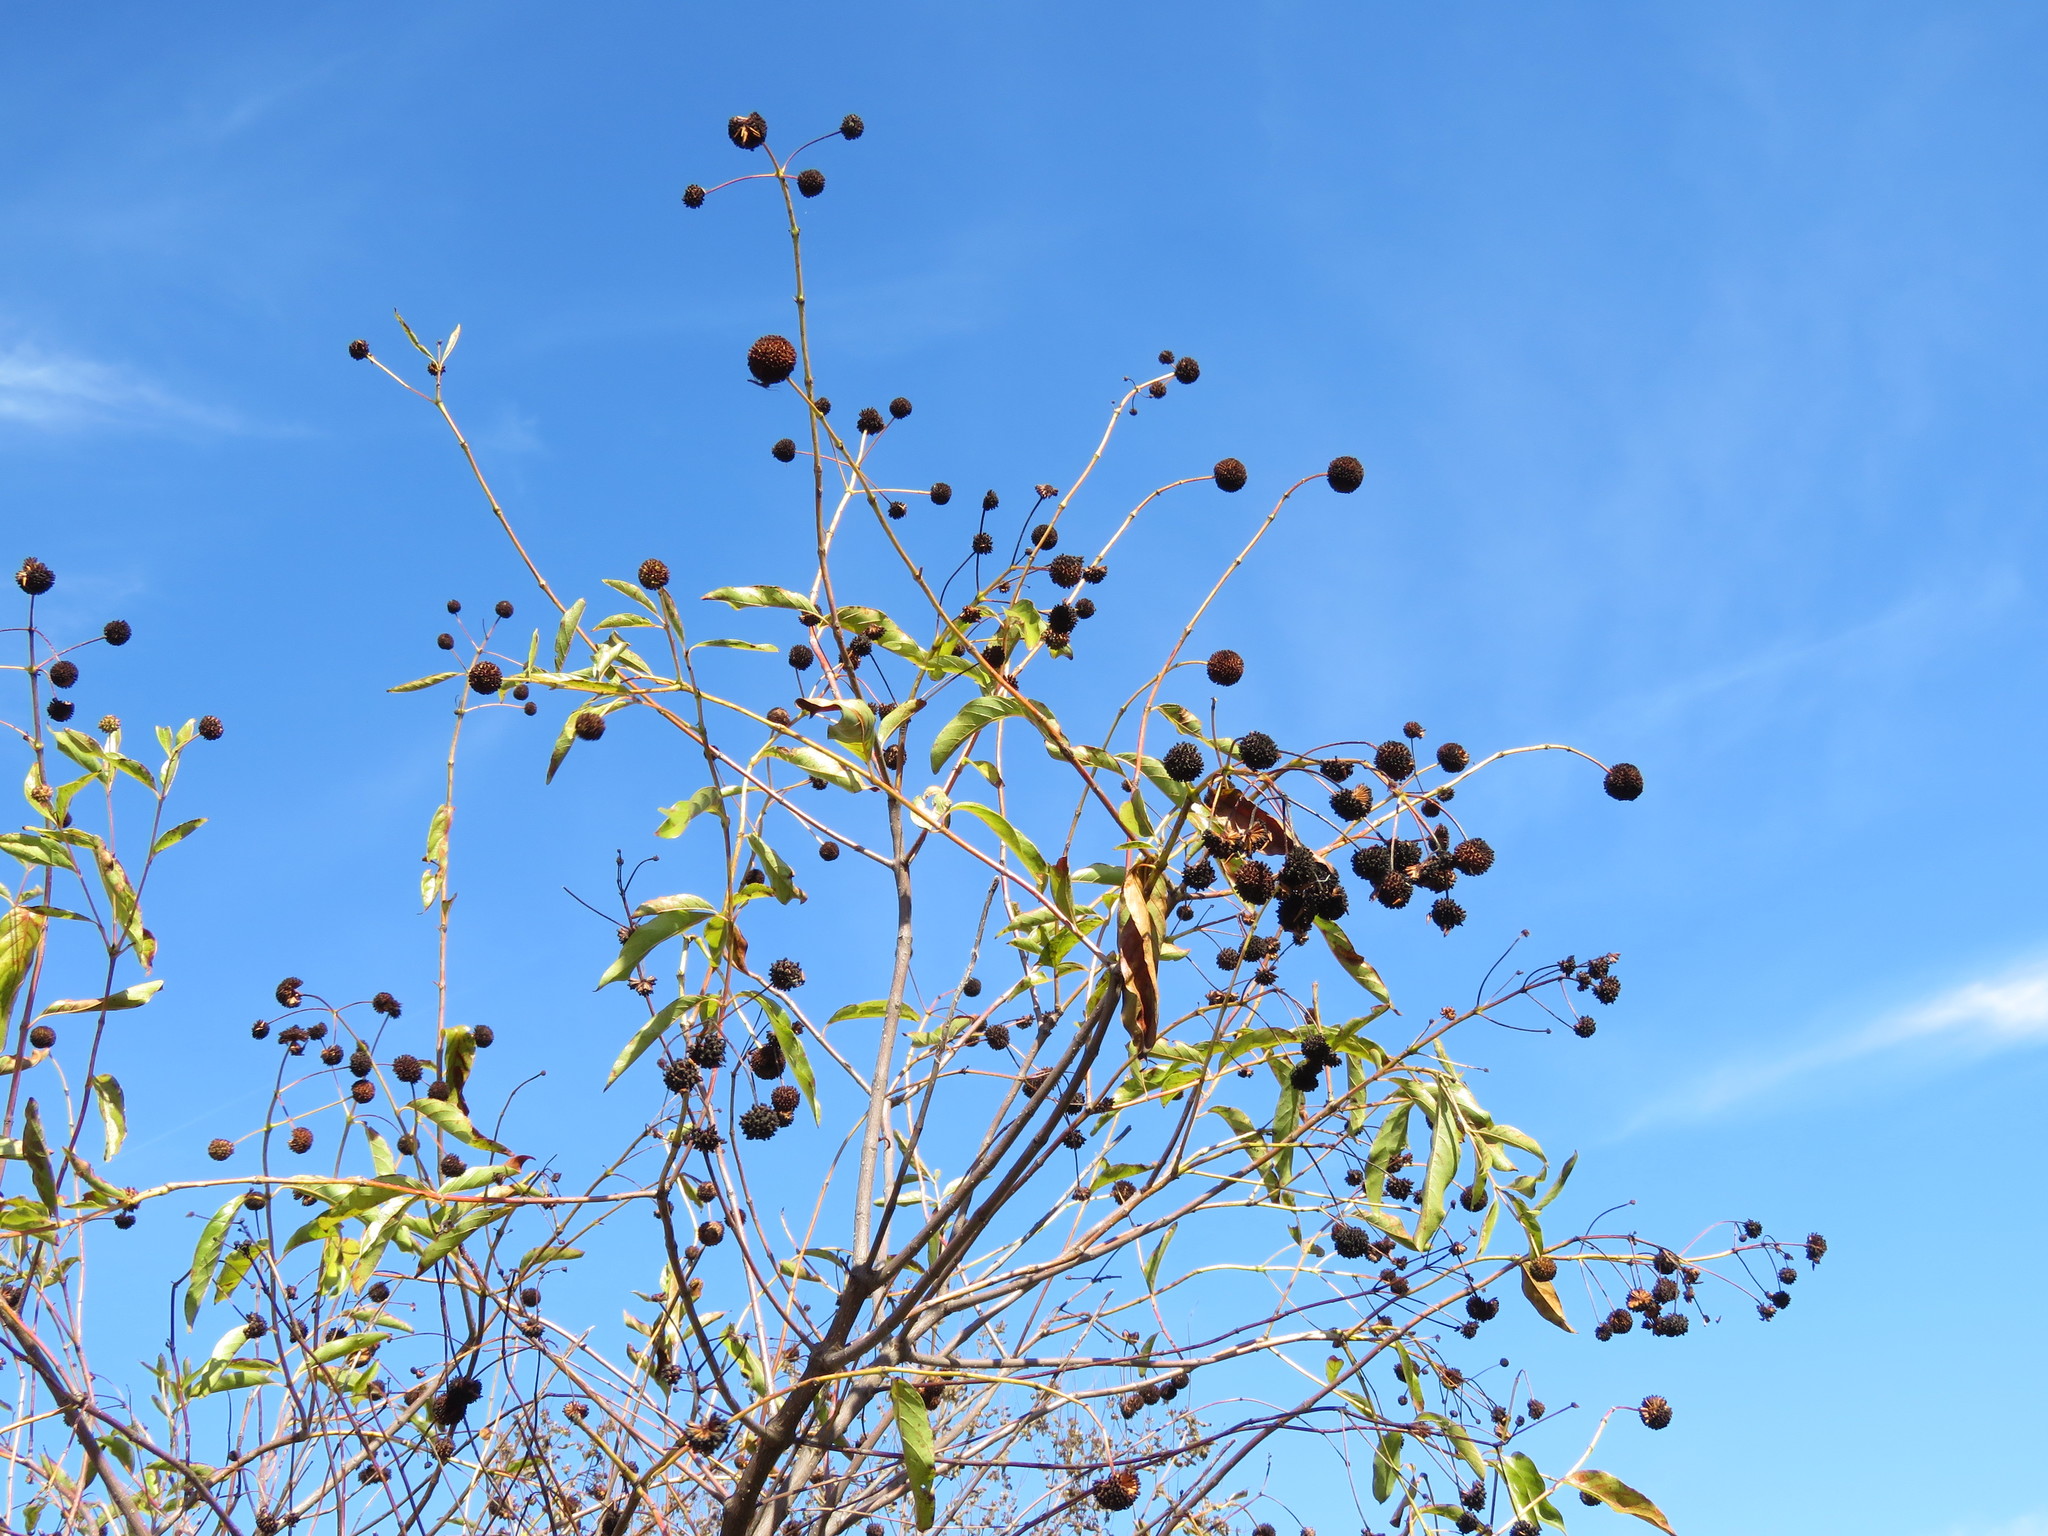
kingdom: Plantae
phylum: Tracheophyta
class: Magnoliopsida
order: Gentianales
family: Rubiaceae
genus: Cephalanthus
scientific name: Cephalanthus occidentalis
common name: Button-willow
